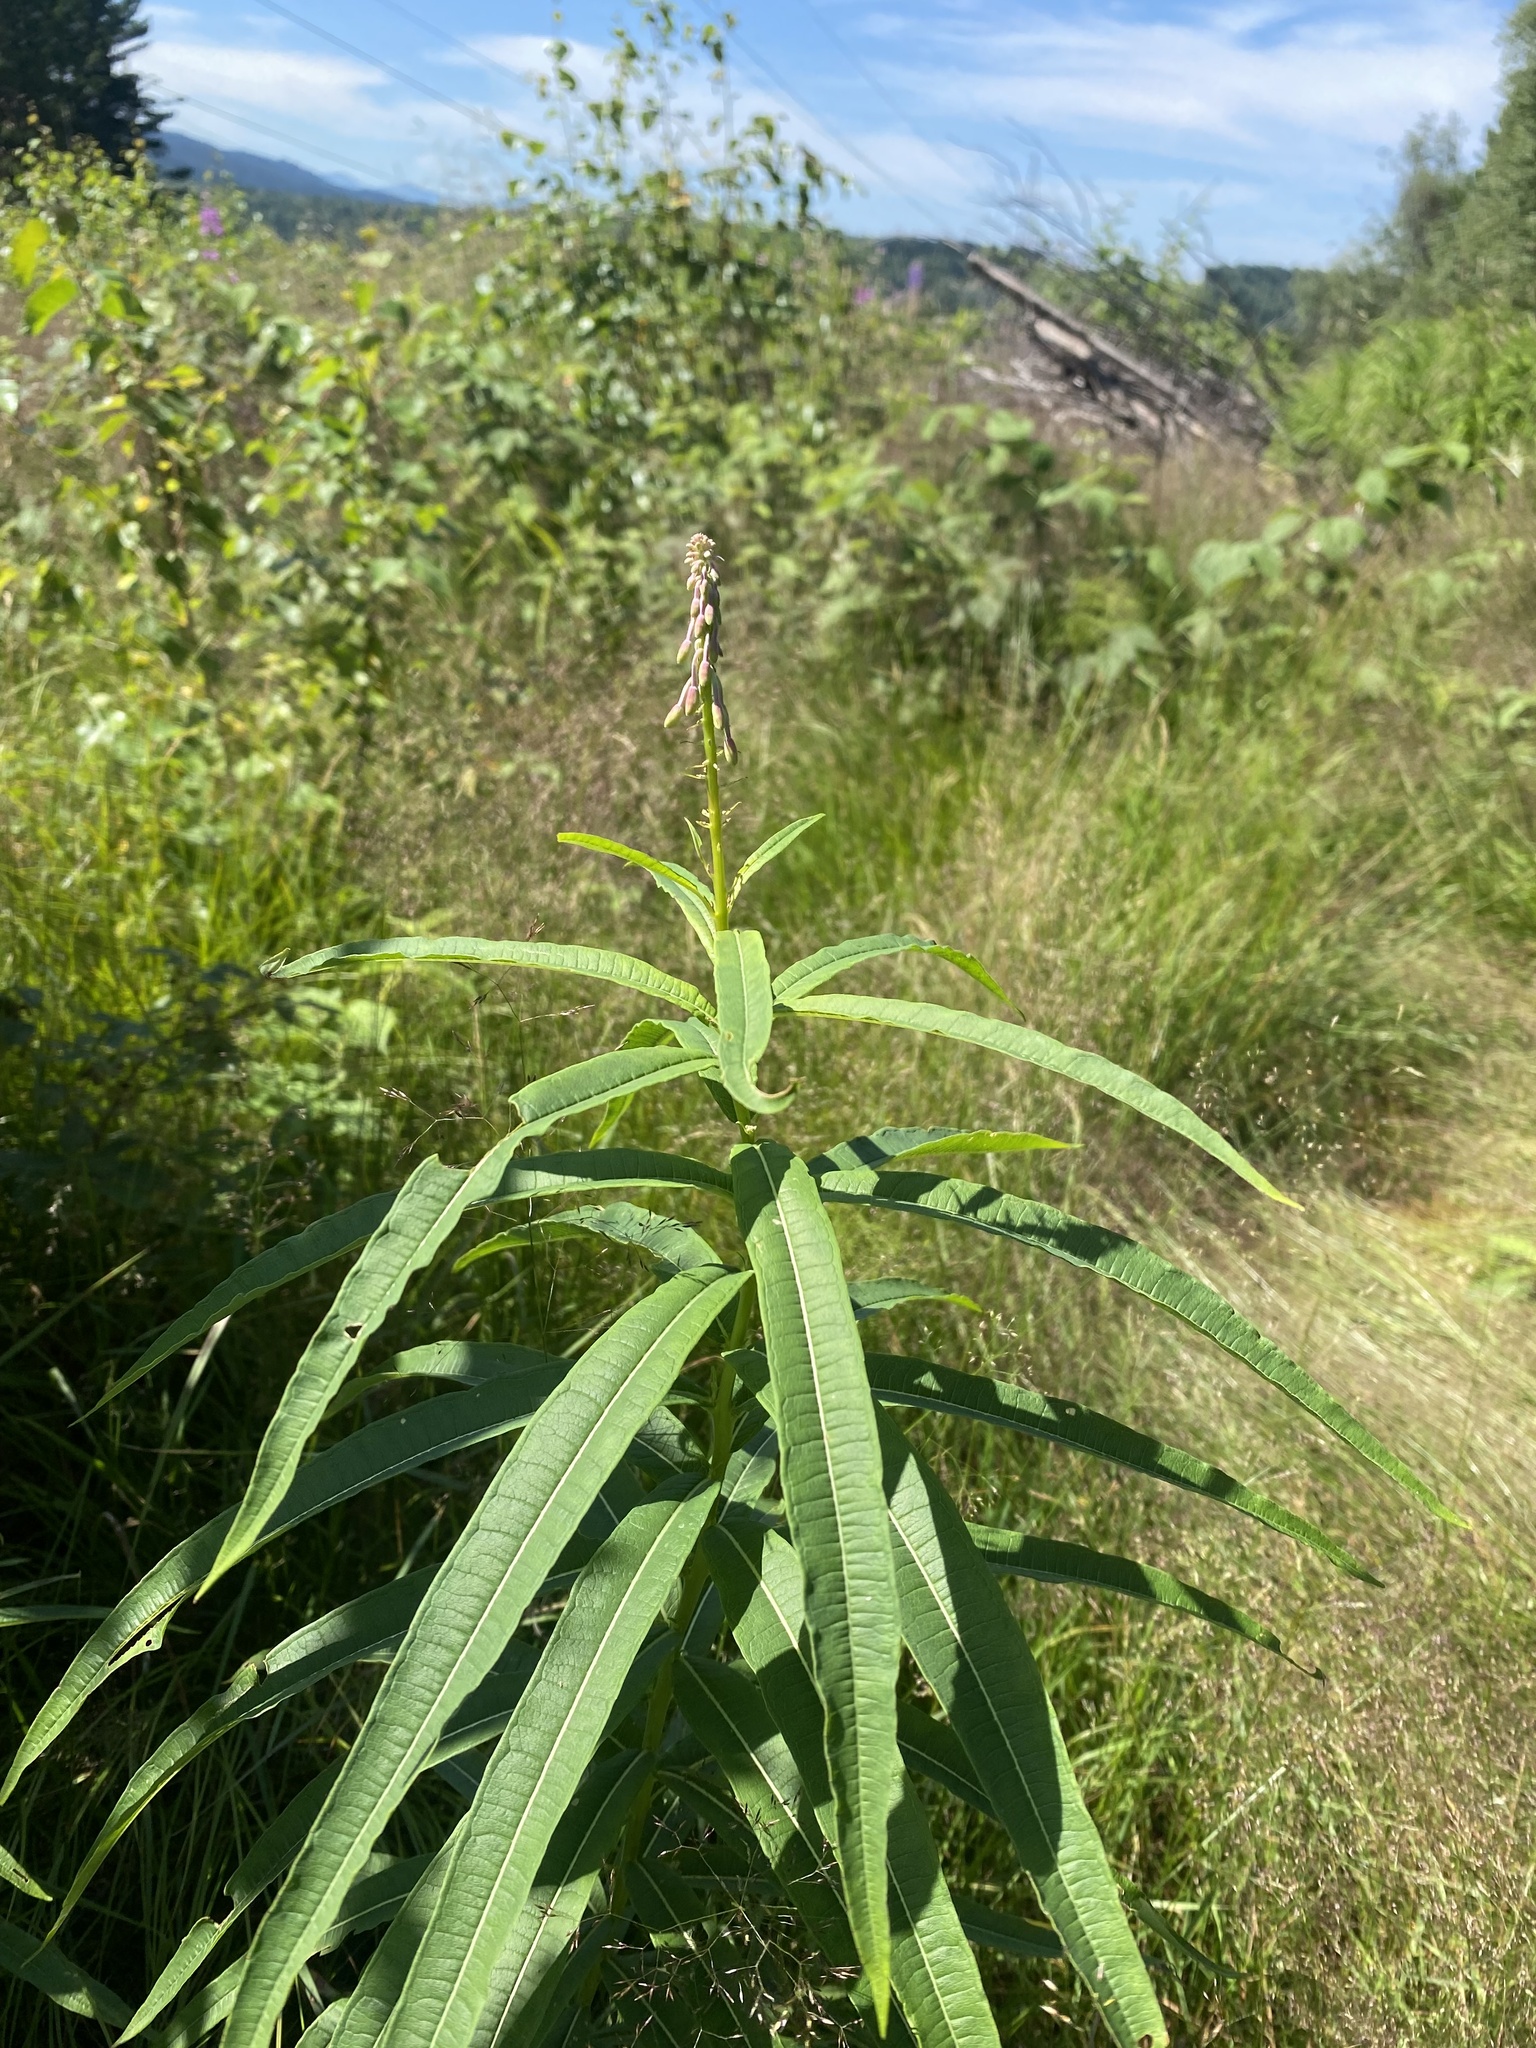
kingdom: Plantae
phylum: Tracheophyta
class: Magnoliopsida
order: Myrtales
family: Onagraceae
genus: Chamaenerion
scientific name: Chamaenerion angustifolium
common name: Fireweed
